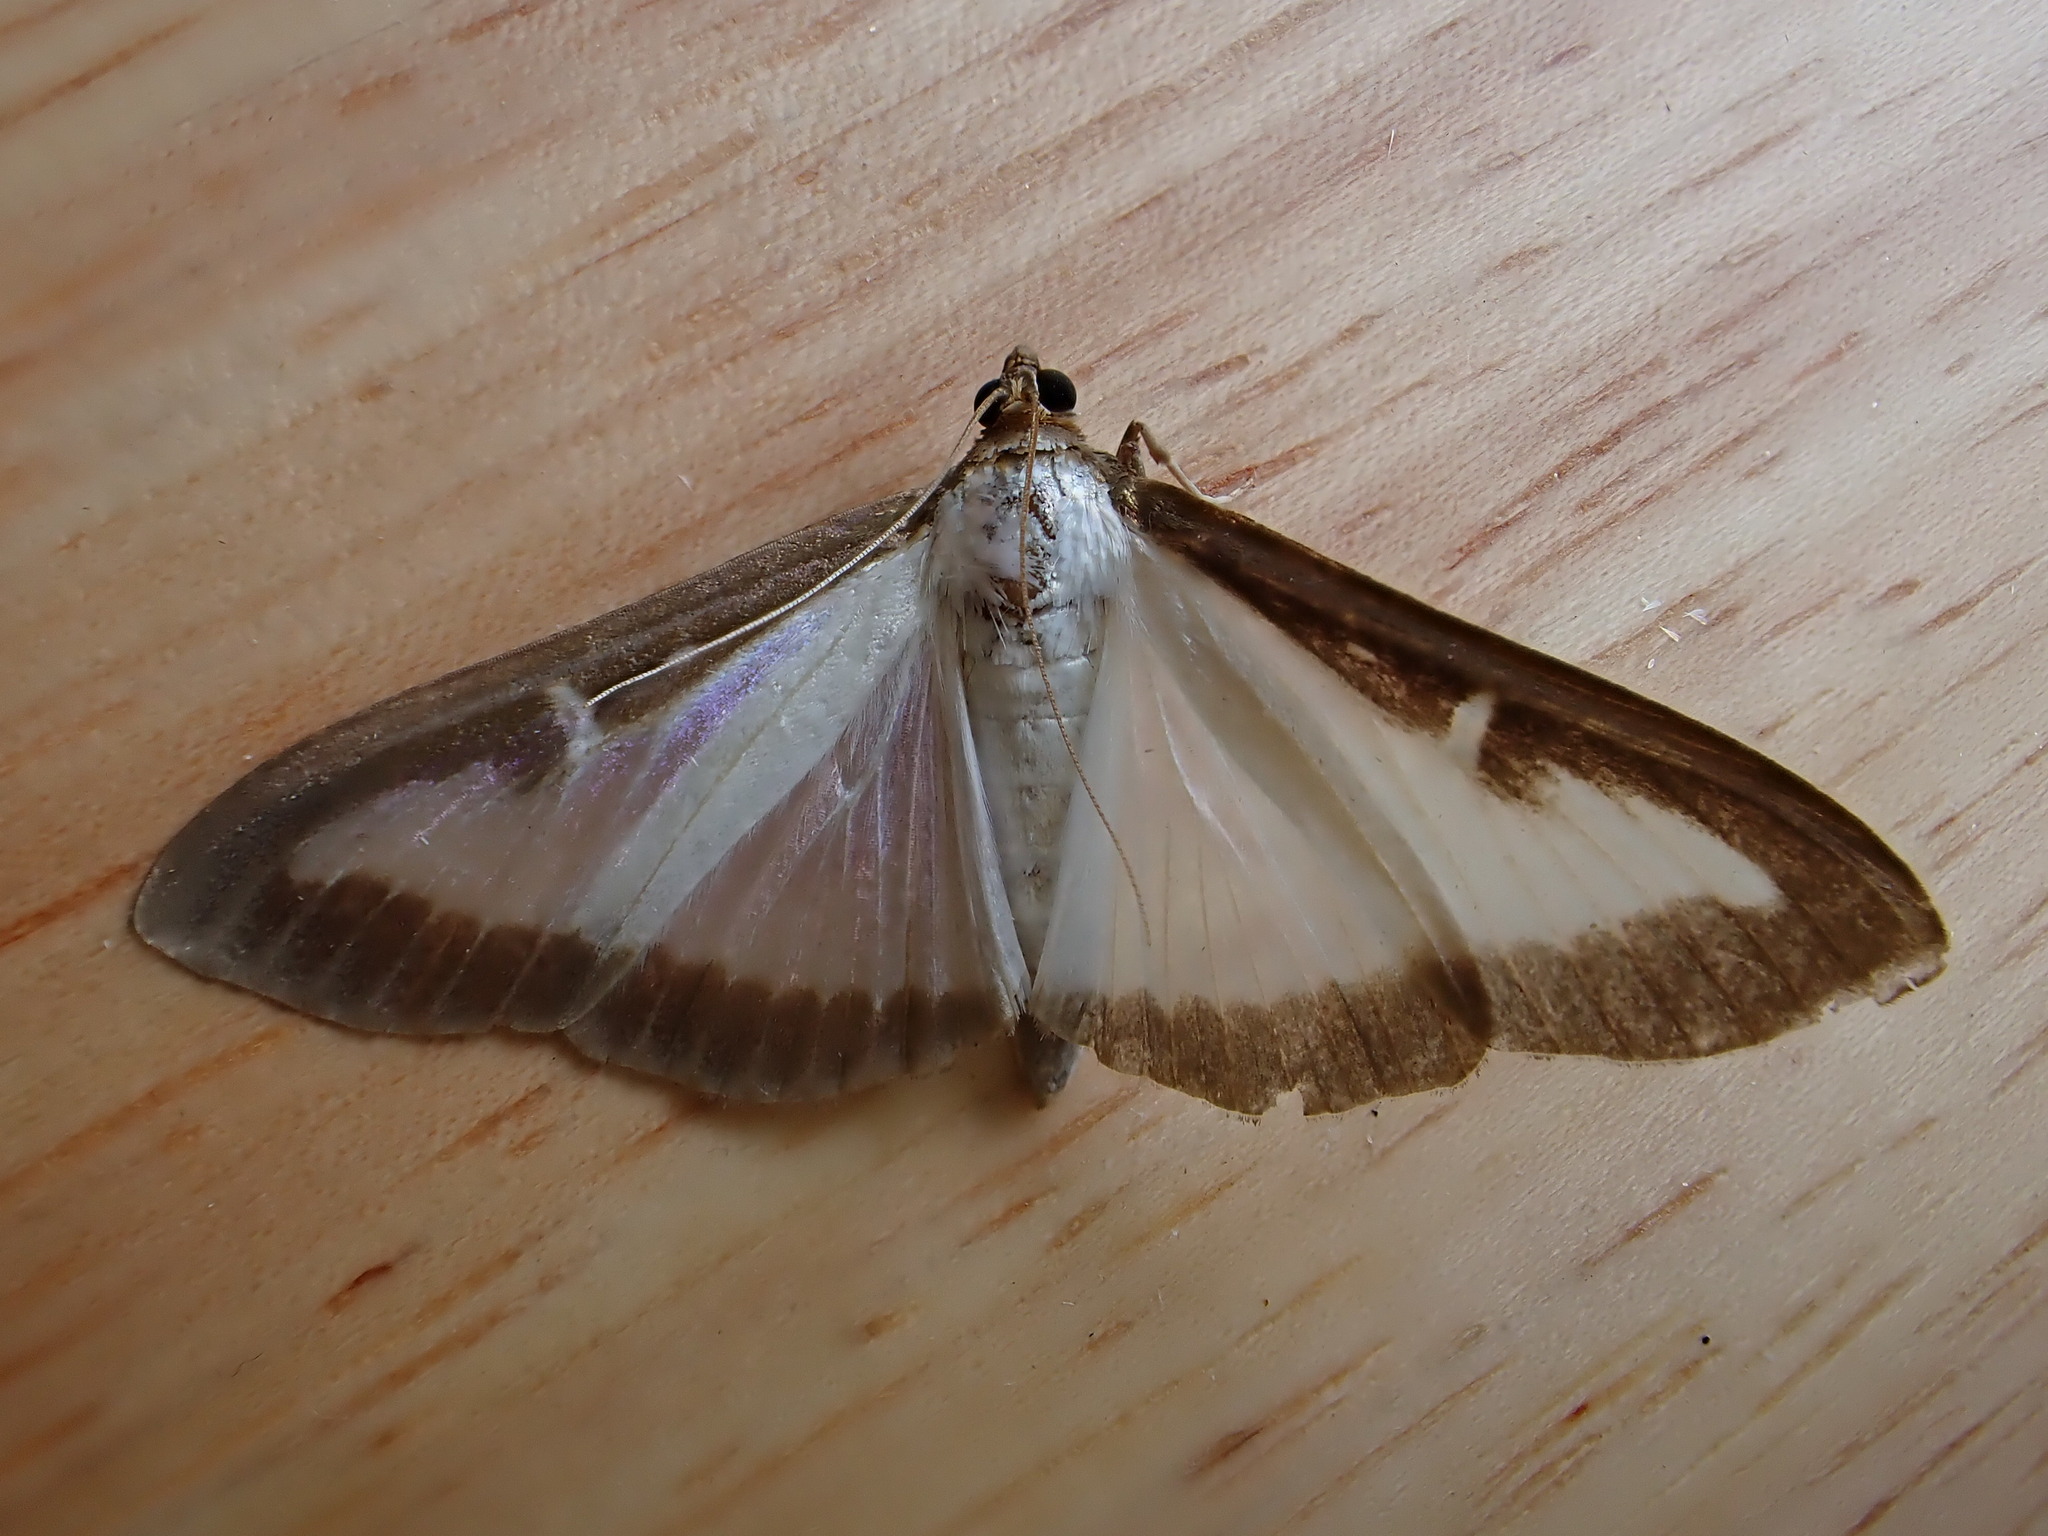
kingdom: Animalia
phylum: Arthropoda
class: Insecta
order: Lepidoptera
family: Crambidae
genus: Cydalima
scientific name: Cydalima perspectalis
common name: Box tree moth
